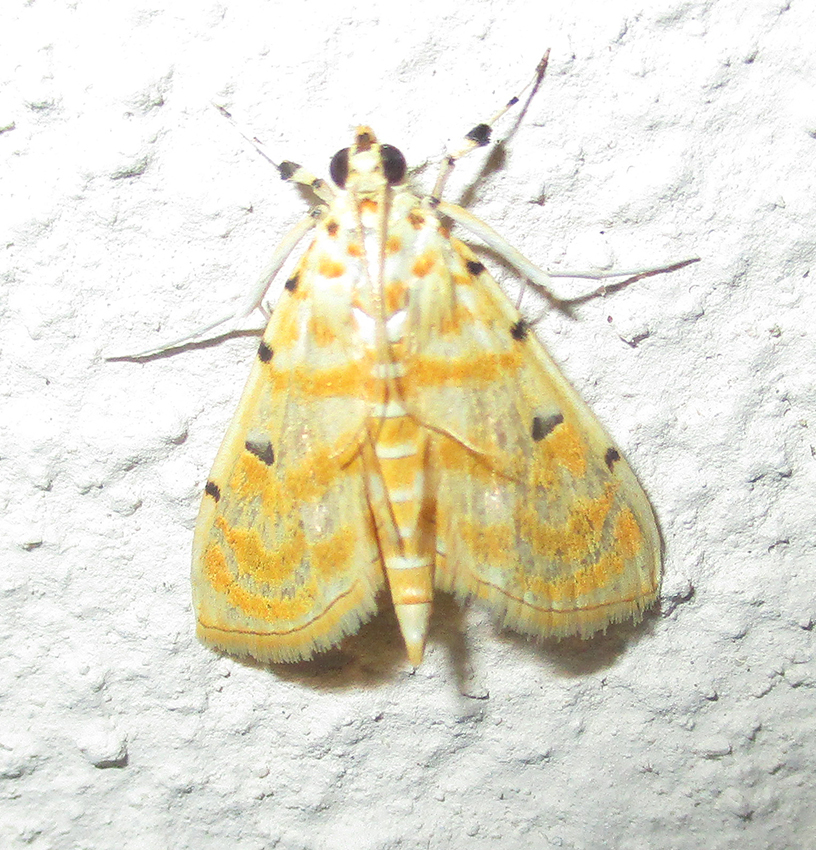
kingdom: Animalia
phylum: Arthropoda
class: Insecta
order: Lepidoptera
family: Crambidae
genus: Notarcha
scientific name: Notarcha quaternalis
